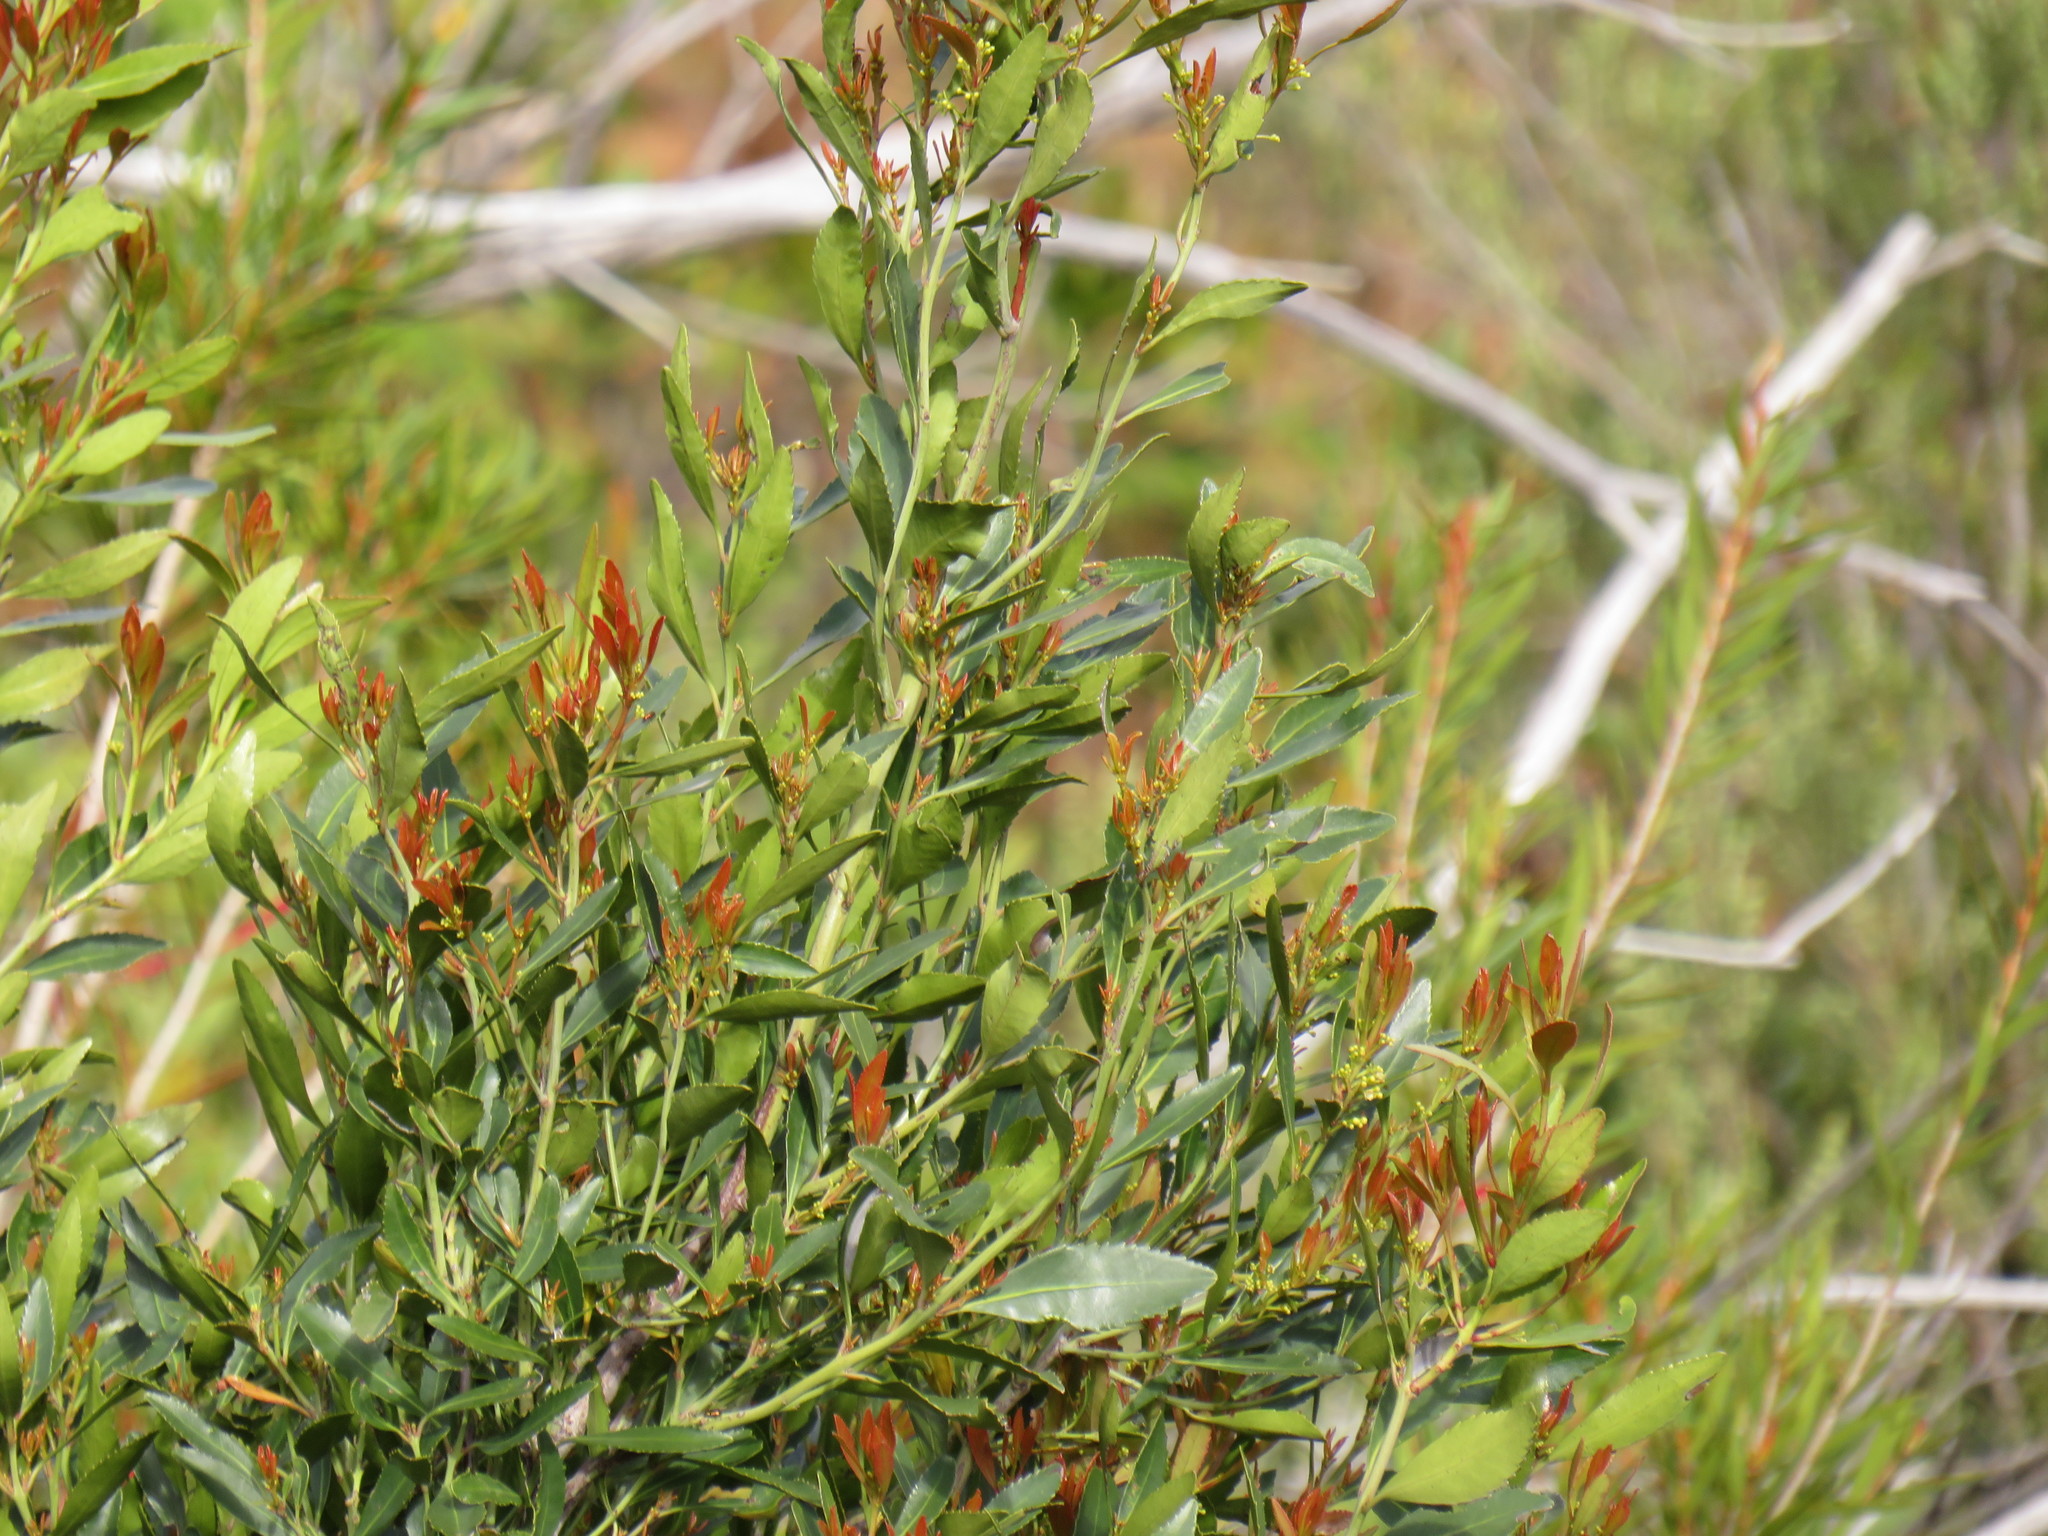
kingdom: Plantae
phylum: Tracheophyta
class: Magnoliopsida
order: Celastrales
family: Celastraceae
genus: Elaeodendron
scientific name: Elaeodendron schinoides
